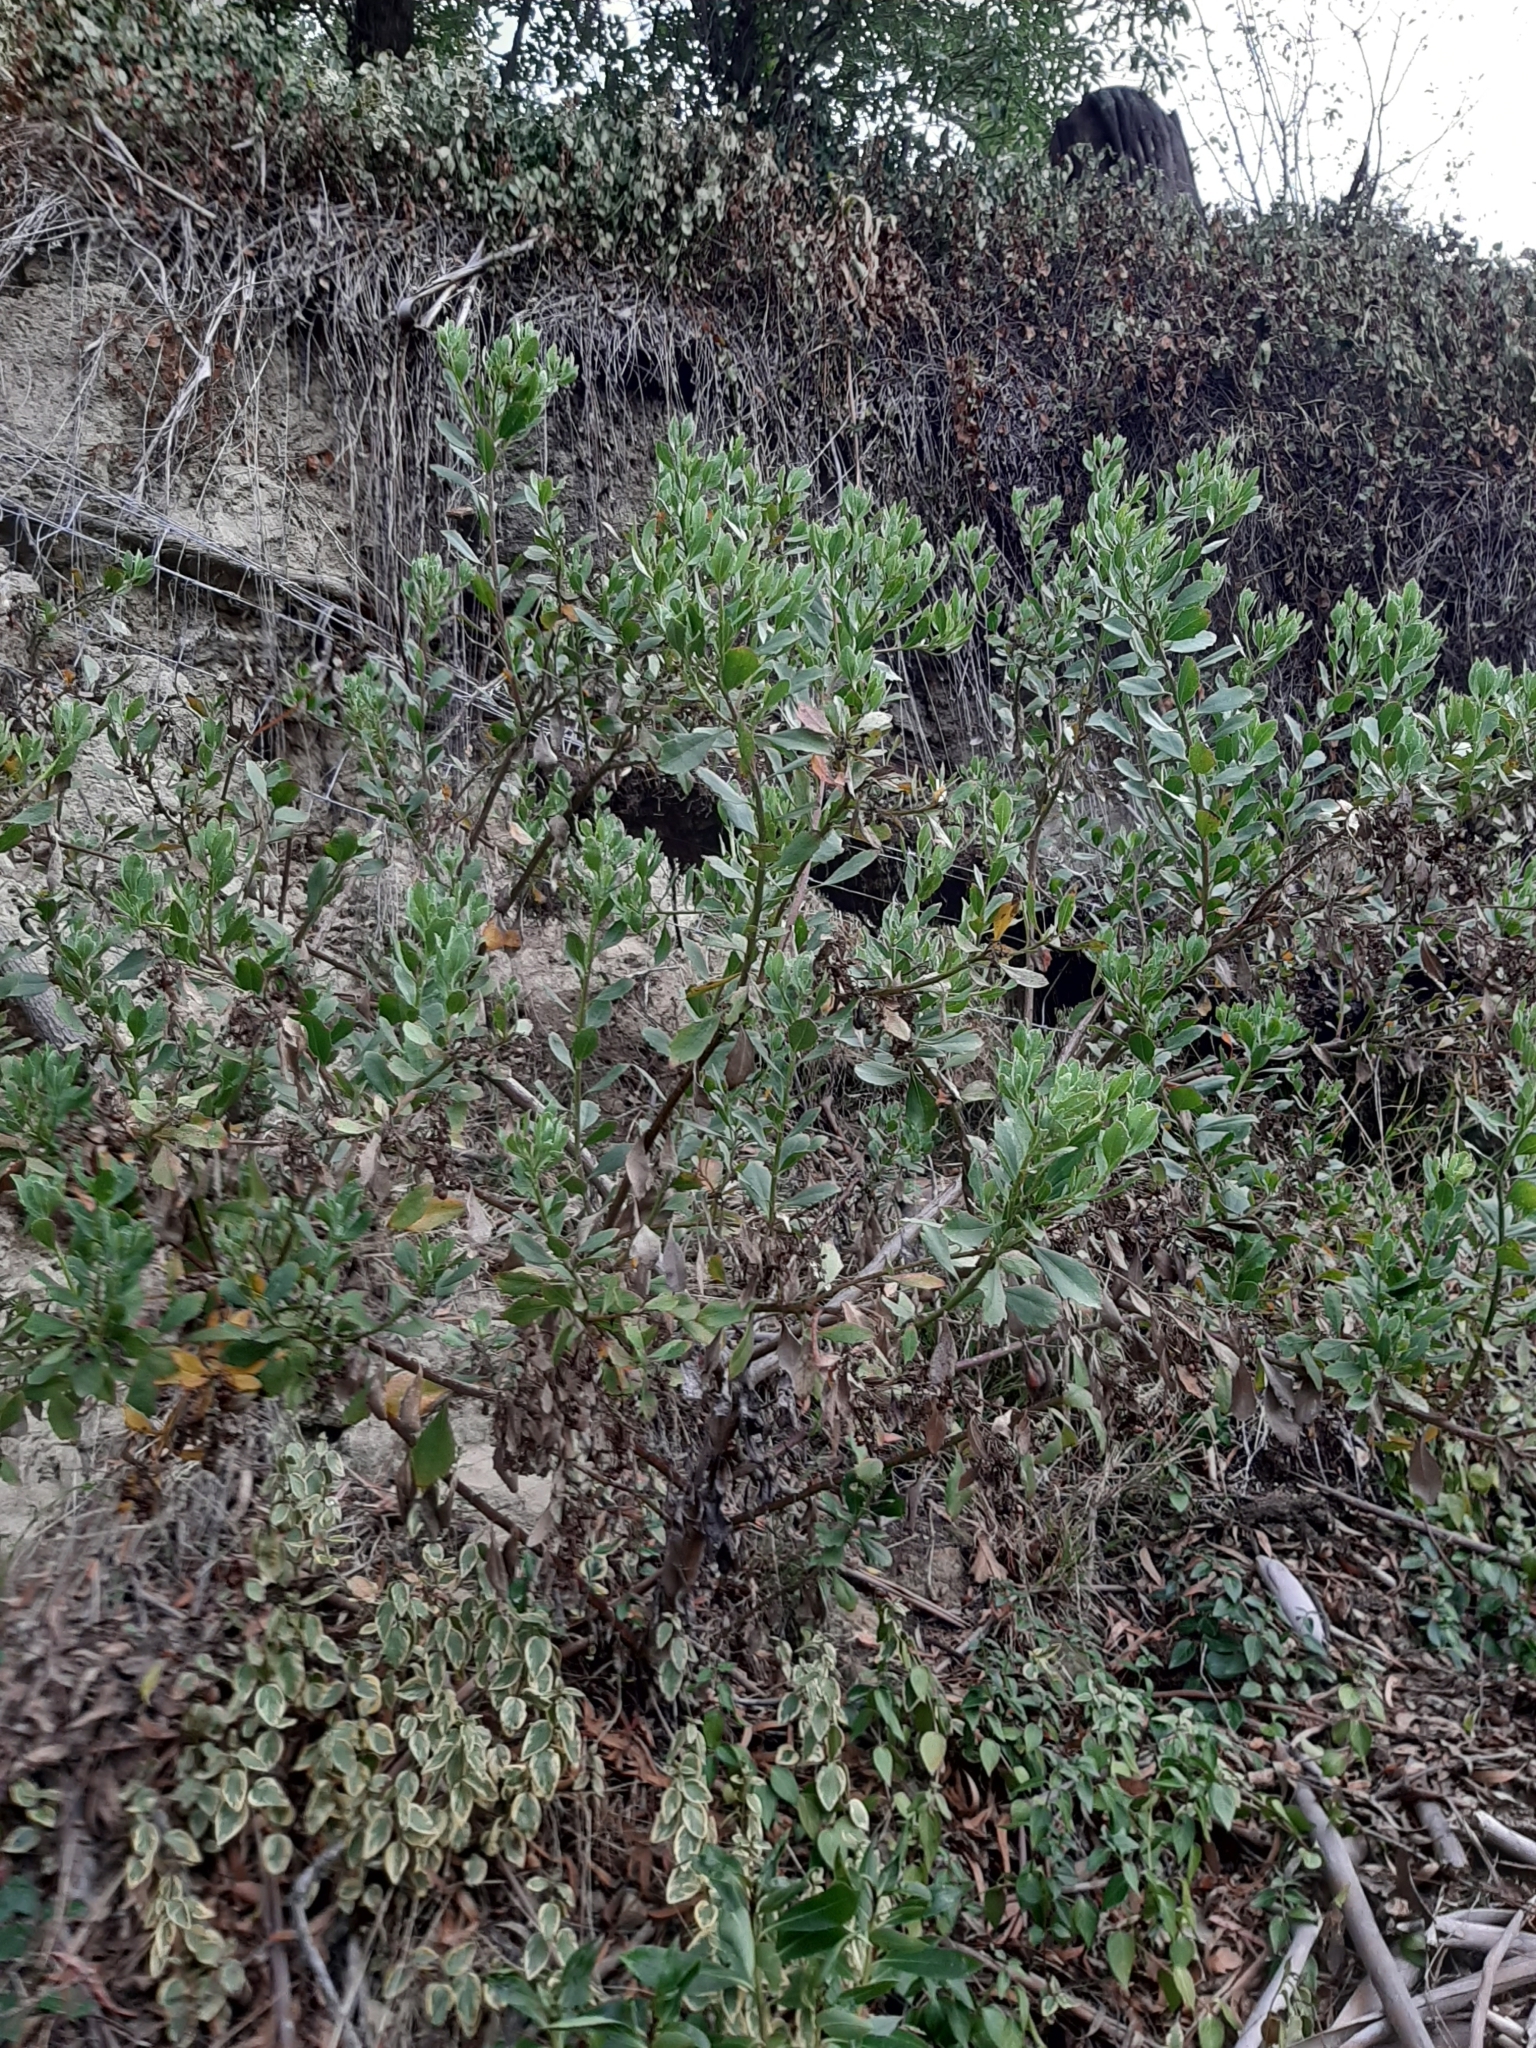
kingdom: Plantae
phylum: Tracheophyta
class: Magnoliopsida
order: Asterales
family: Asteraceae
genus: Osteospermum
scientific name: Osteospermum moniliferum
